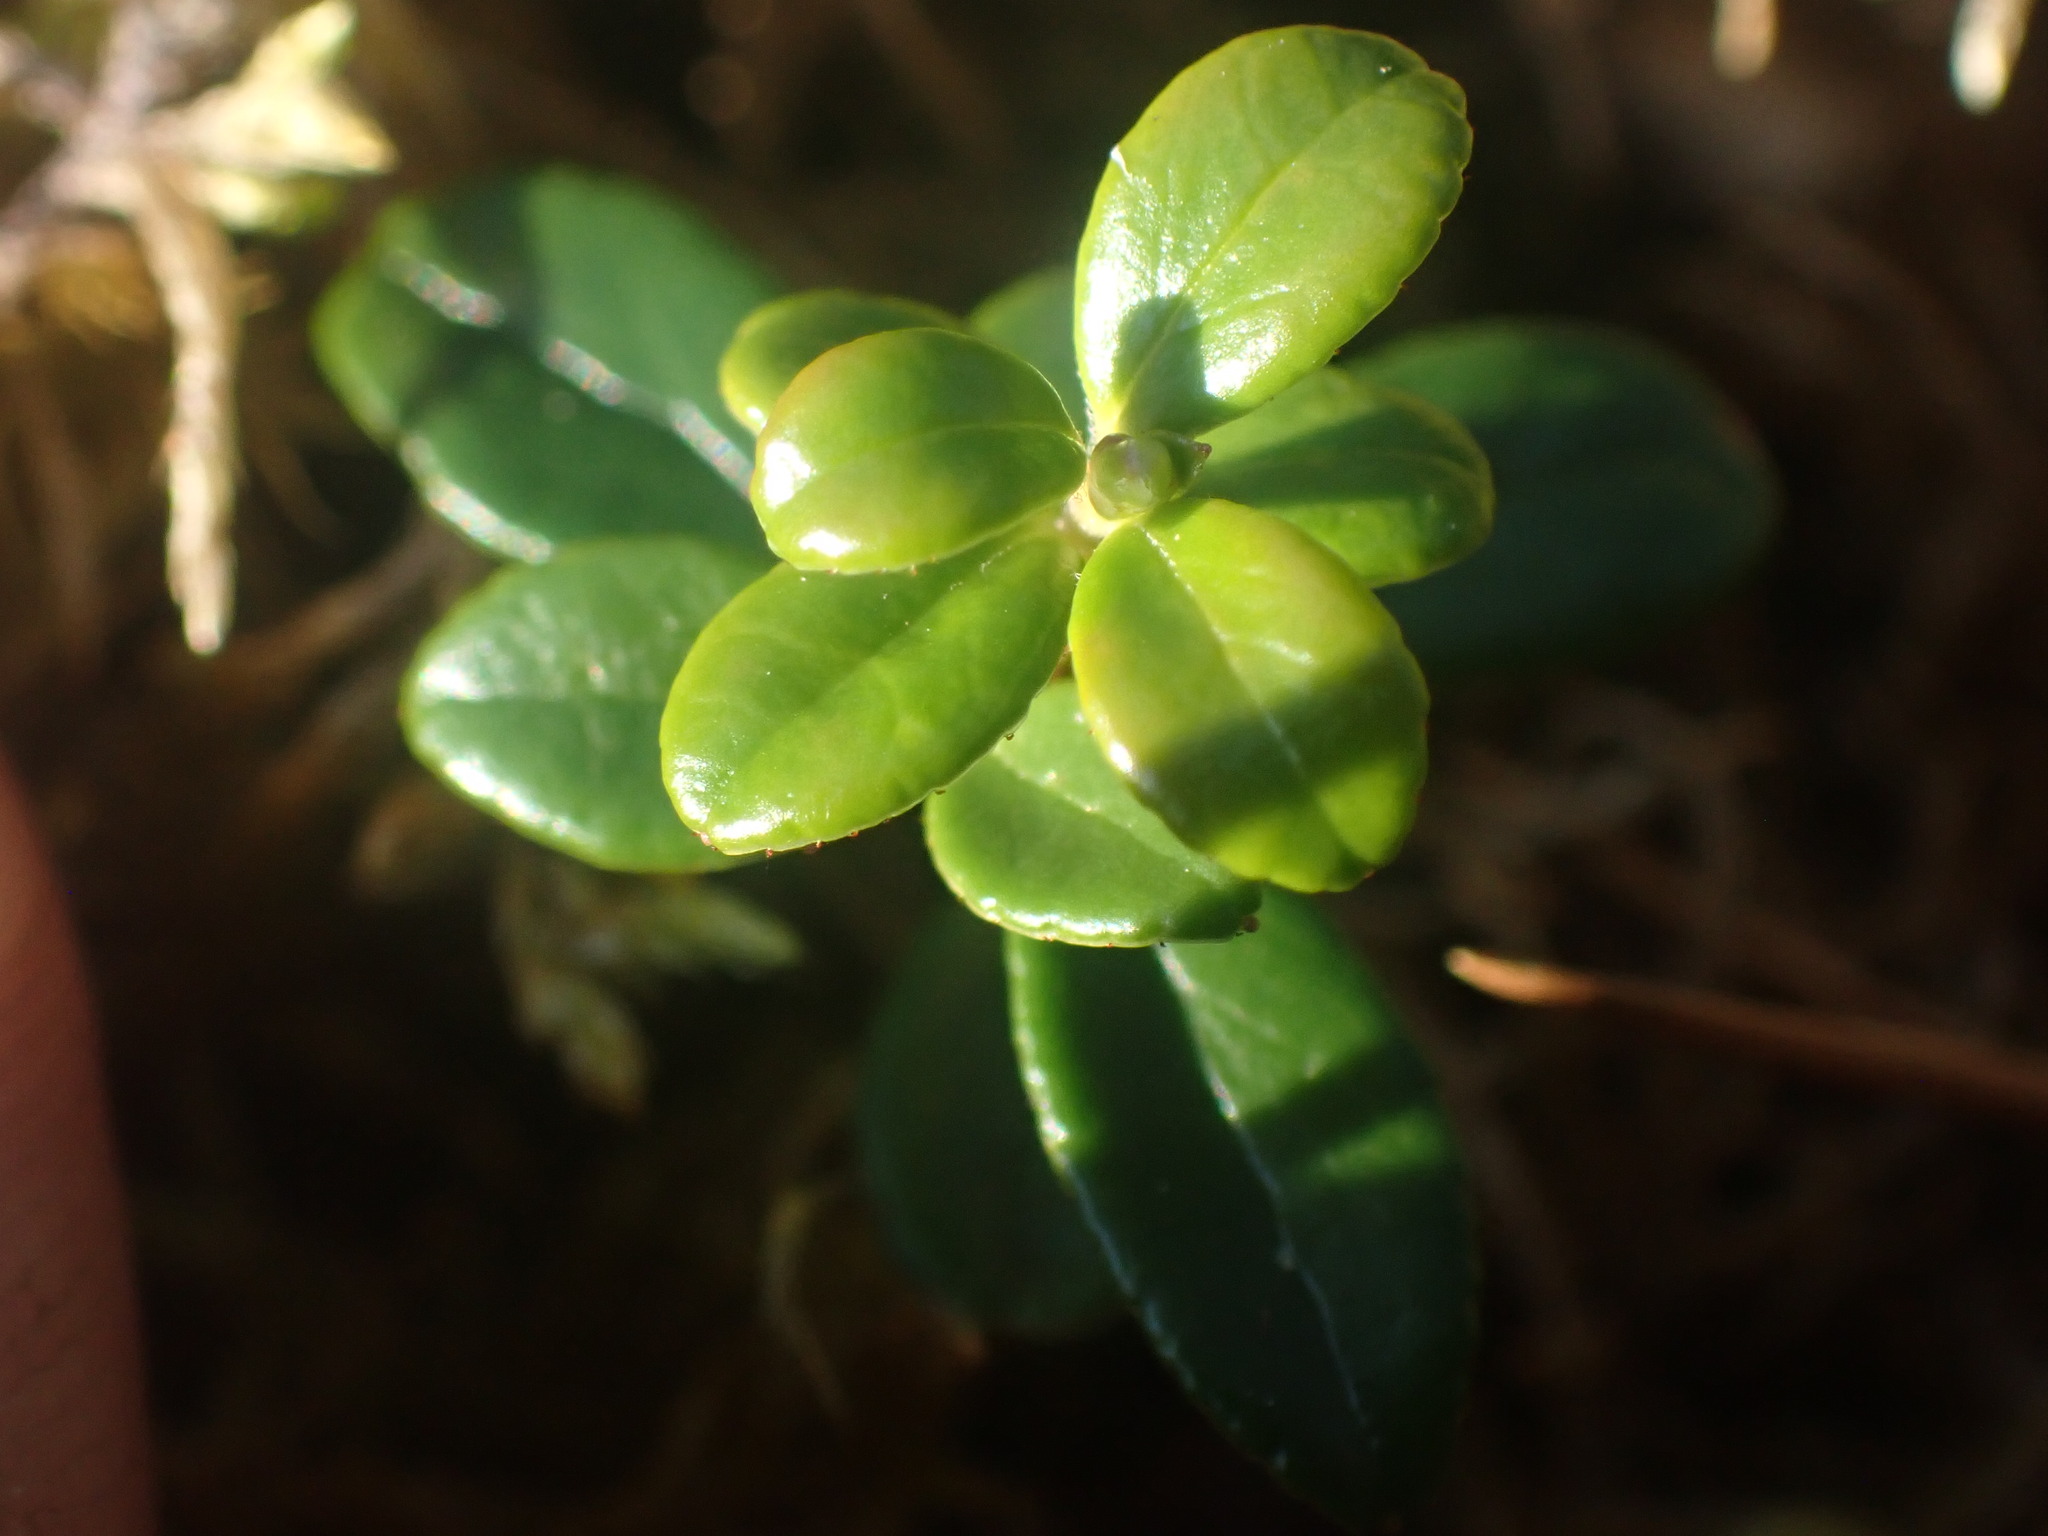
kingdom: Plantae
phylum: Tracheophyta
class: Magnoliopsida
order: Ericales
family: Ericaceae
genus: Vaccinium
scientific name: Vaccinium vitis-idaea
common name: Cowberry
